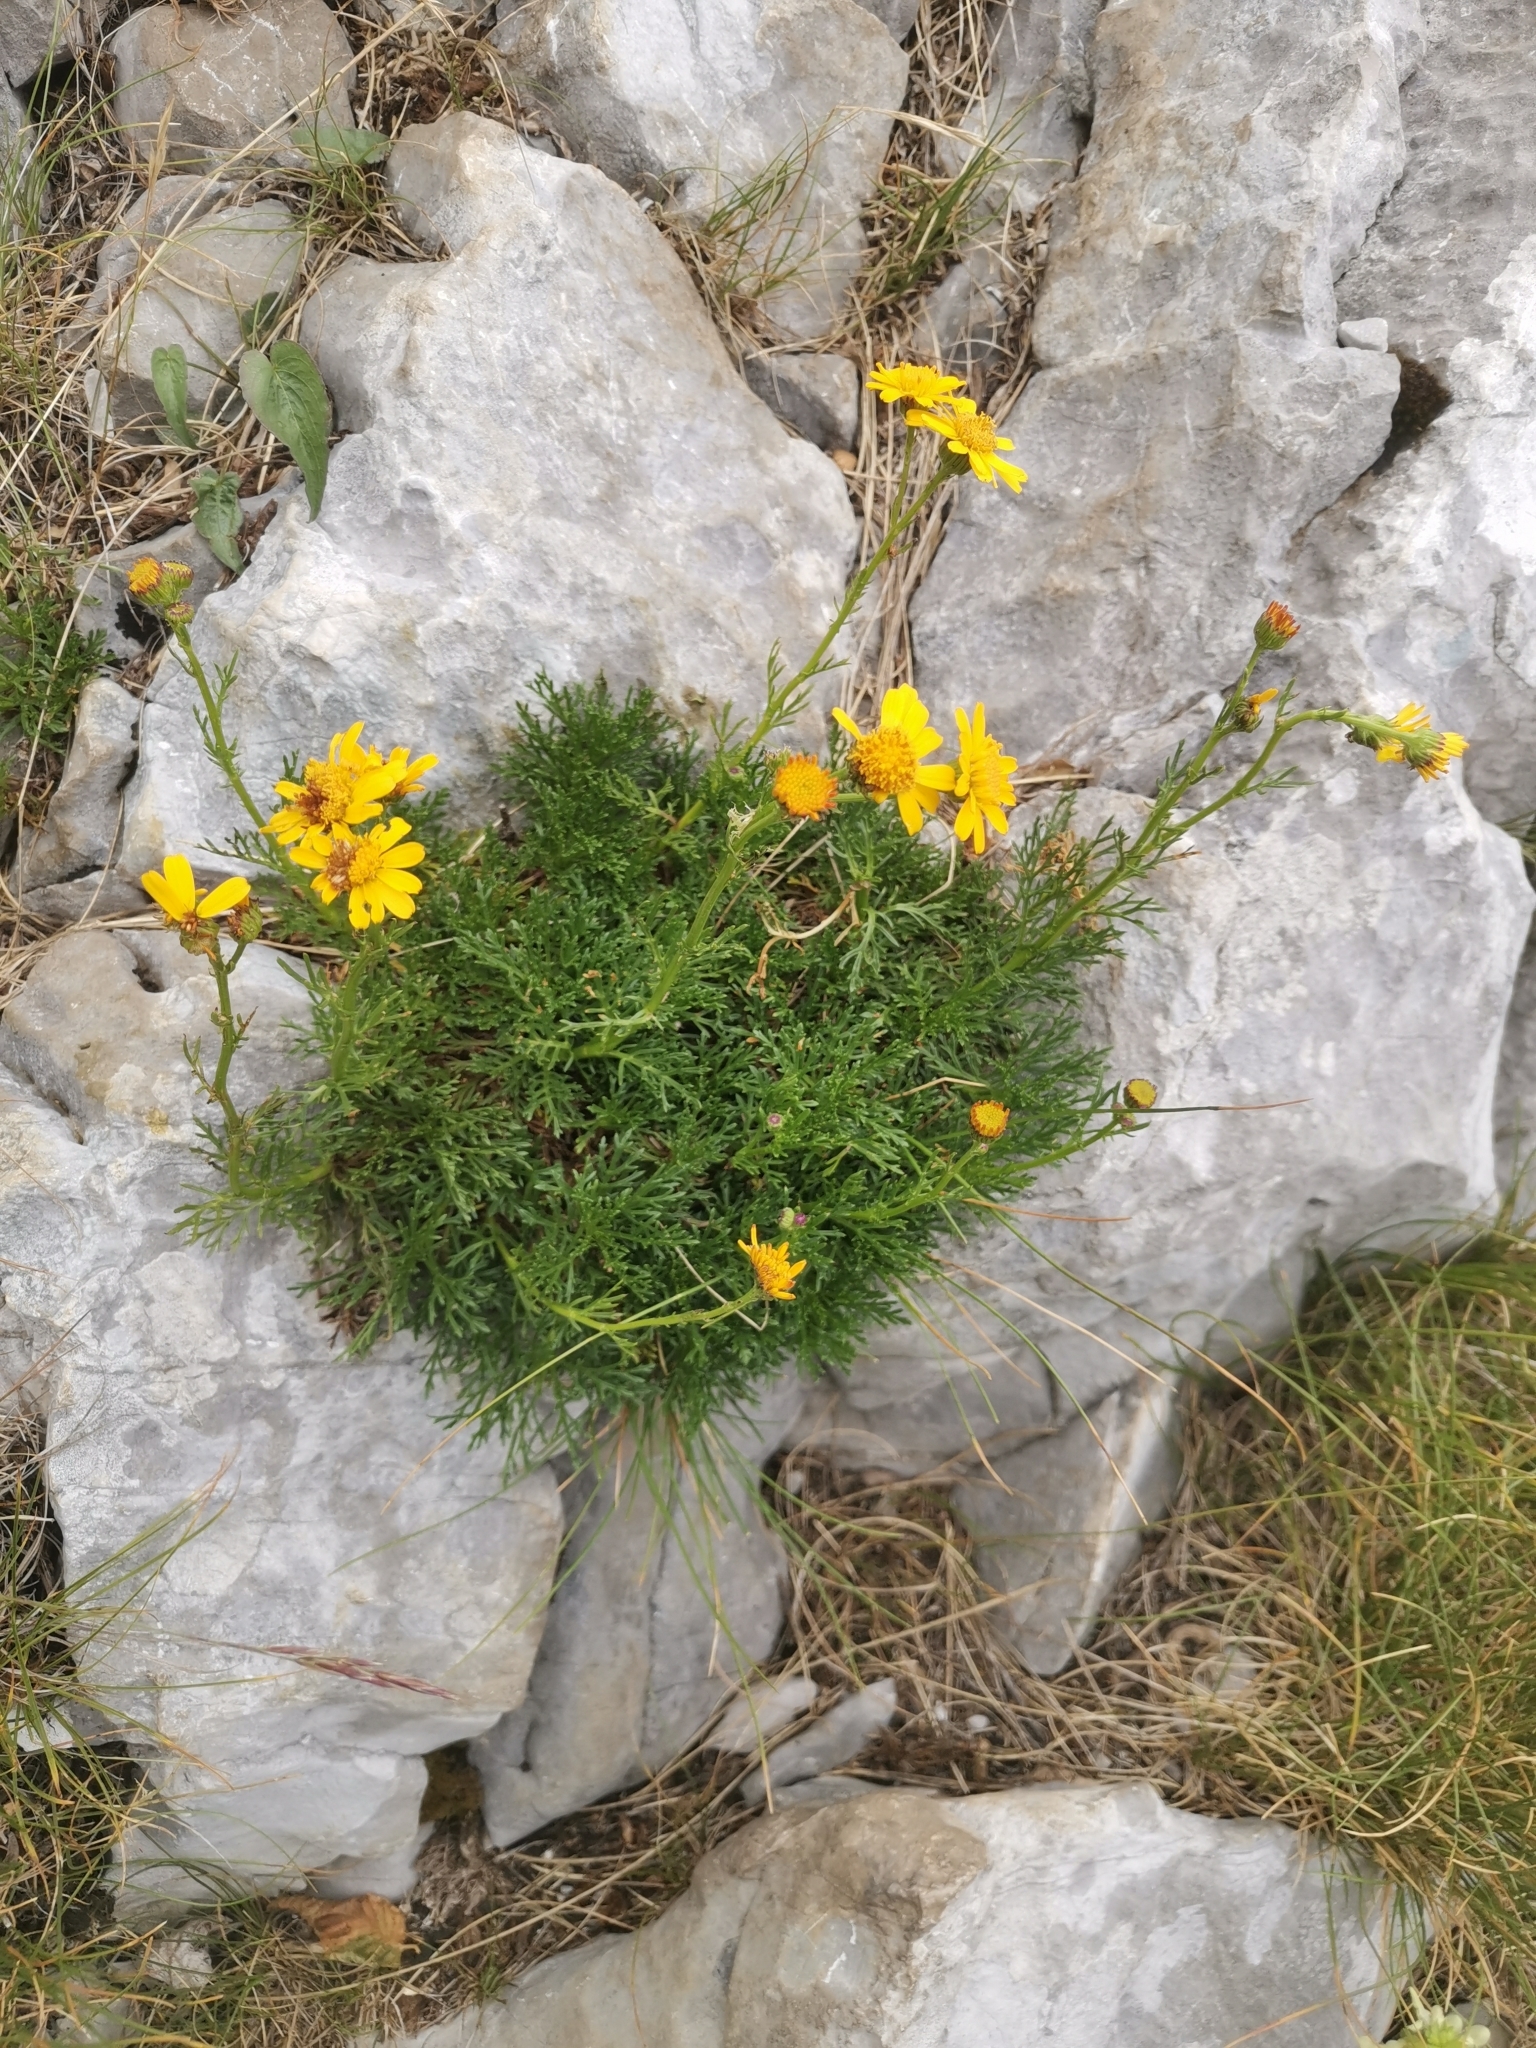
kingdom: Plantae
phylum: Tracheophyta
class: Magnoliopsida
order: Asterales
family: Asteraceae
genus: Jacobaea
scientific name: Jacobaea abrotanifolia
